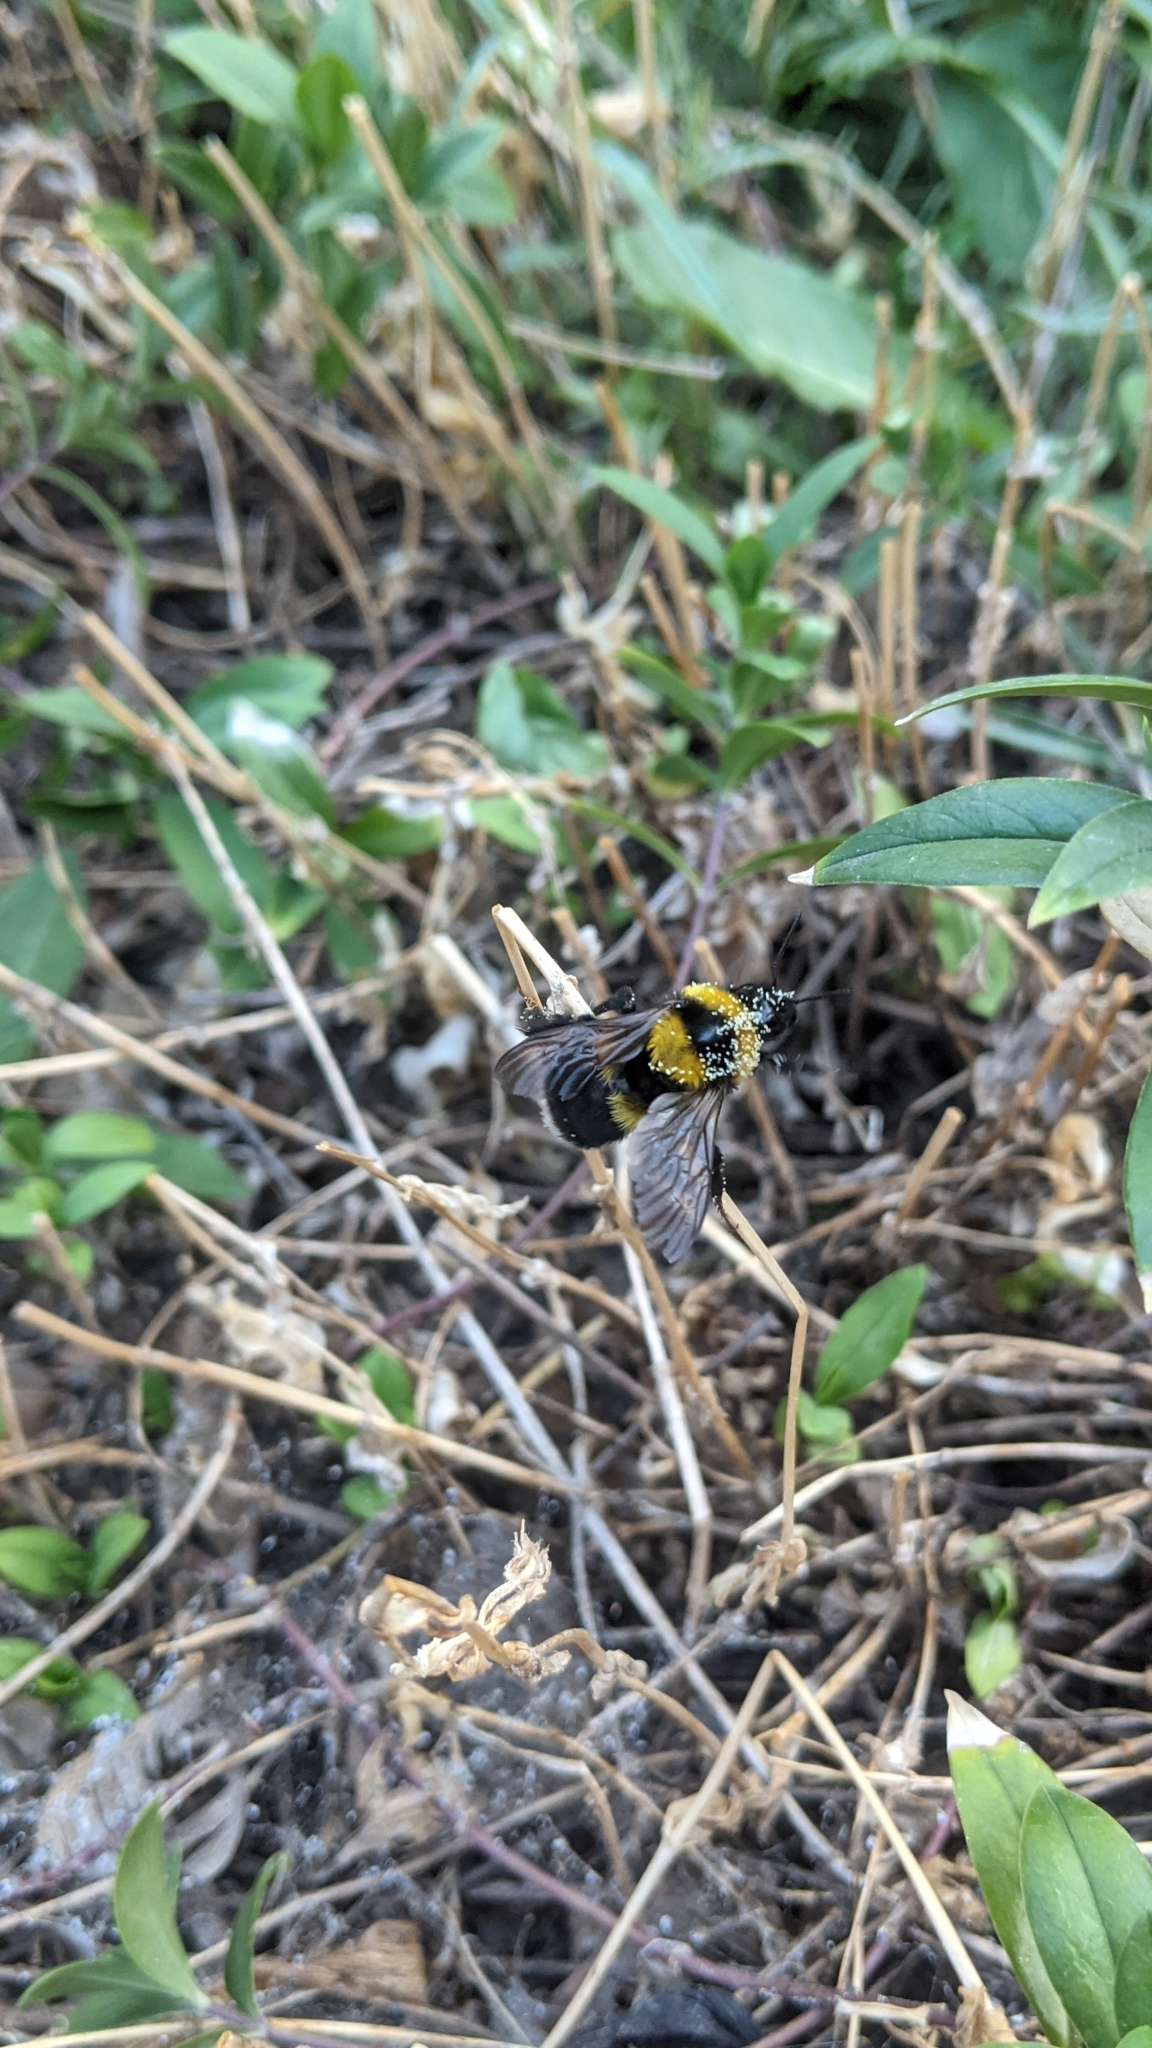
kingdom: Animalia
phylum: Arthropoda
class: Insecta
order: Hymenoptera
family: Apidae
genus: Bombus
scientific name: Bombus argillaceus
